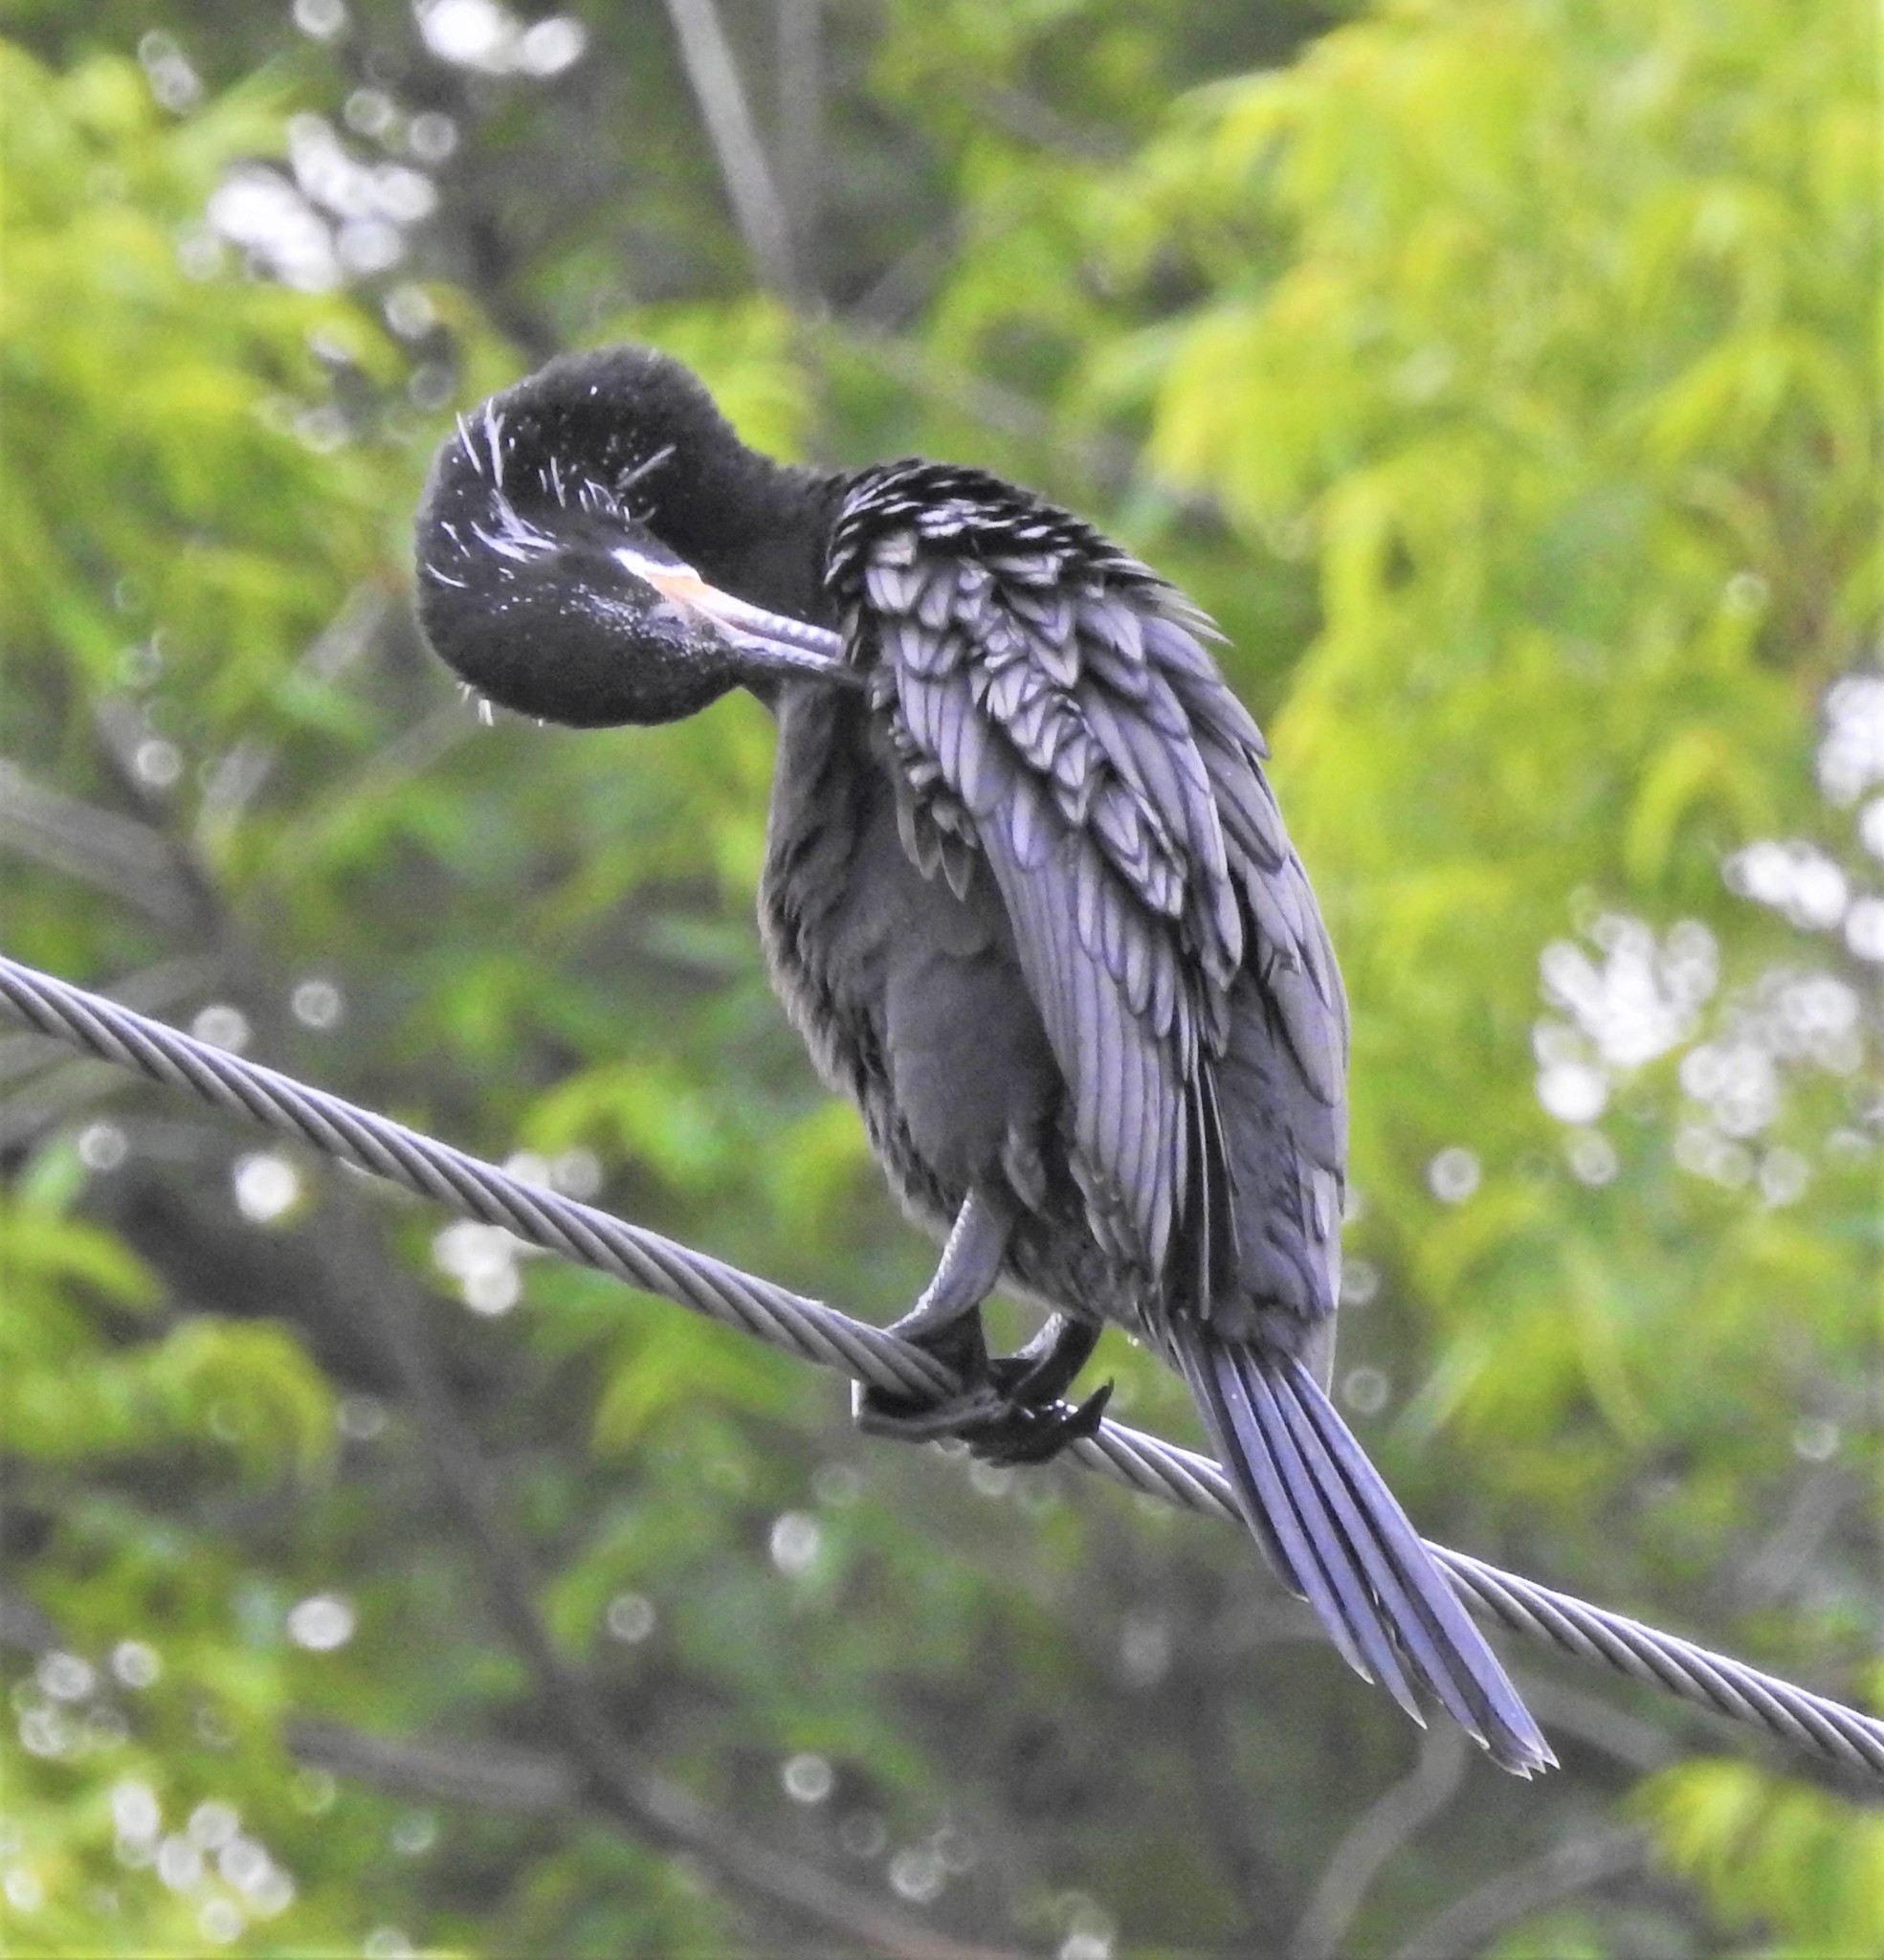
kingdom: Animalia
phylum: Chordata
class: Aves
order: Suliformes
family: Phalacrocoracidae
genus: Phalacrocorax
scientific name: Phalacrocorax brasilianus
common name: Neotropic cormorant
